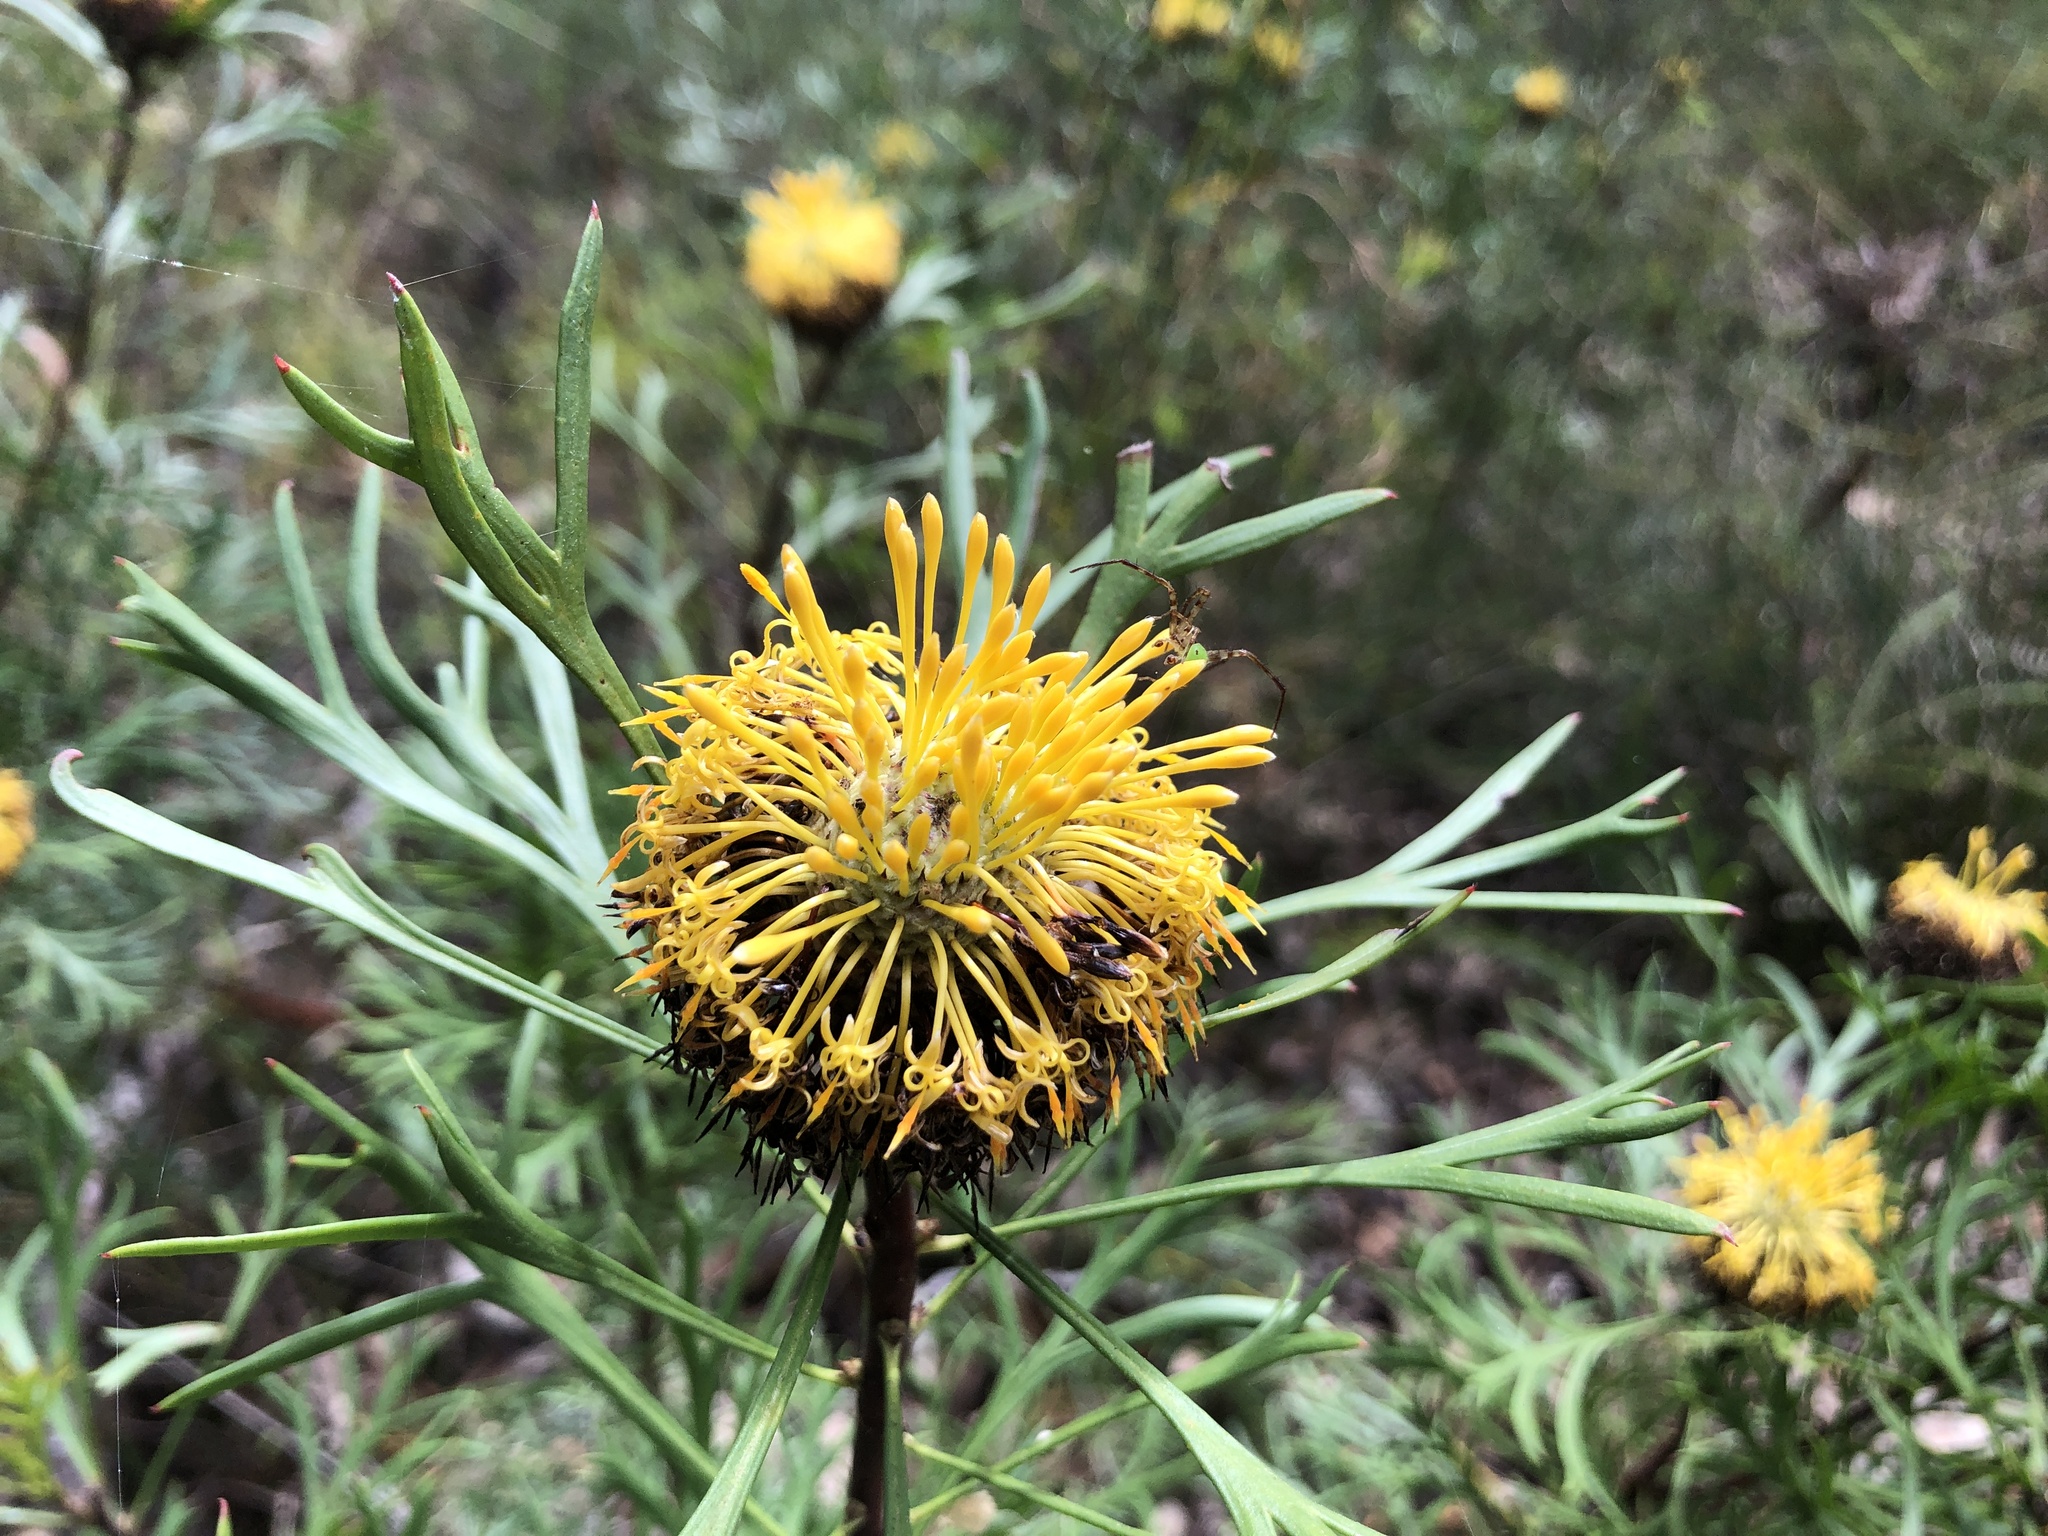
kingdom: Plantae
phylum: Tracheophyta
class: Magnoliopsida
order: Proteales
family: Proteaceae
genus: Isopogon
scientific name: Isopogon anemonifolius
